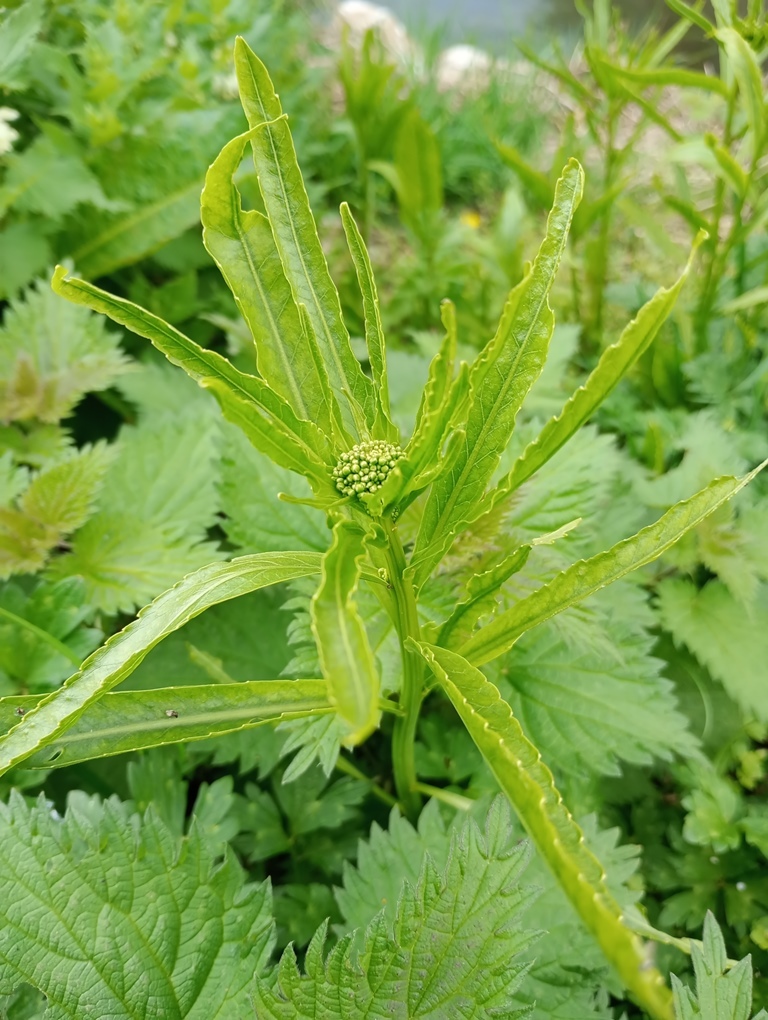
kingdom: Plantae
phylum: Tracheophyta
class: Magnoliopsida
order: Brassicales
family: Brassicaceae
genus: Armoracia
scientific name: Armoracia rusticana
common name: Horseradish
